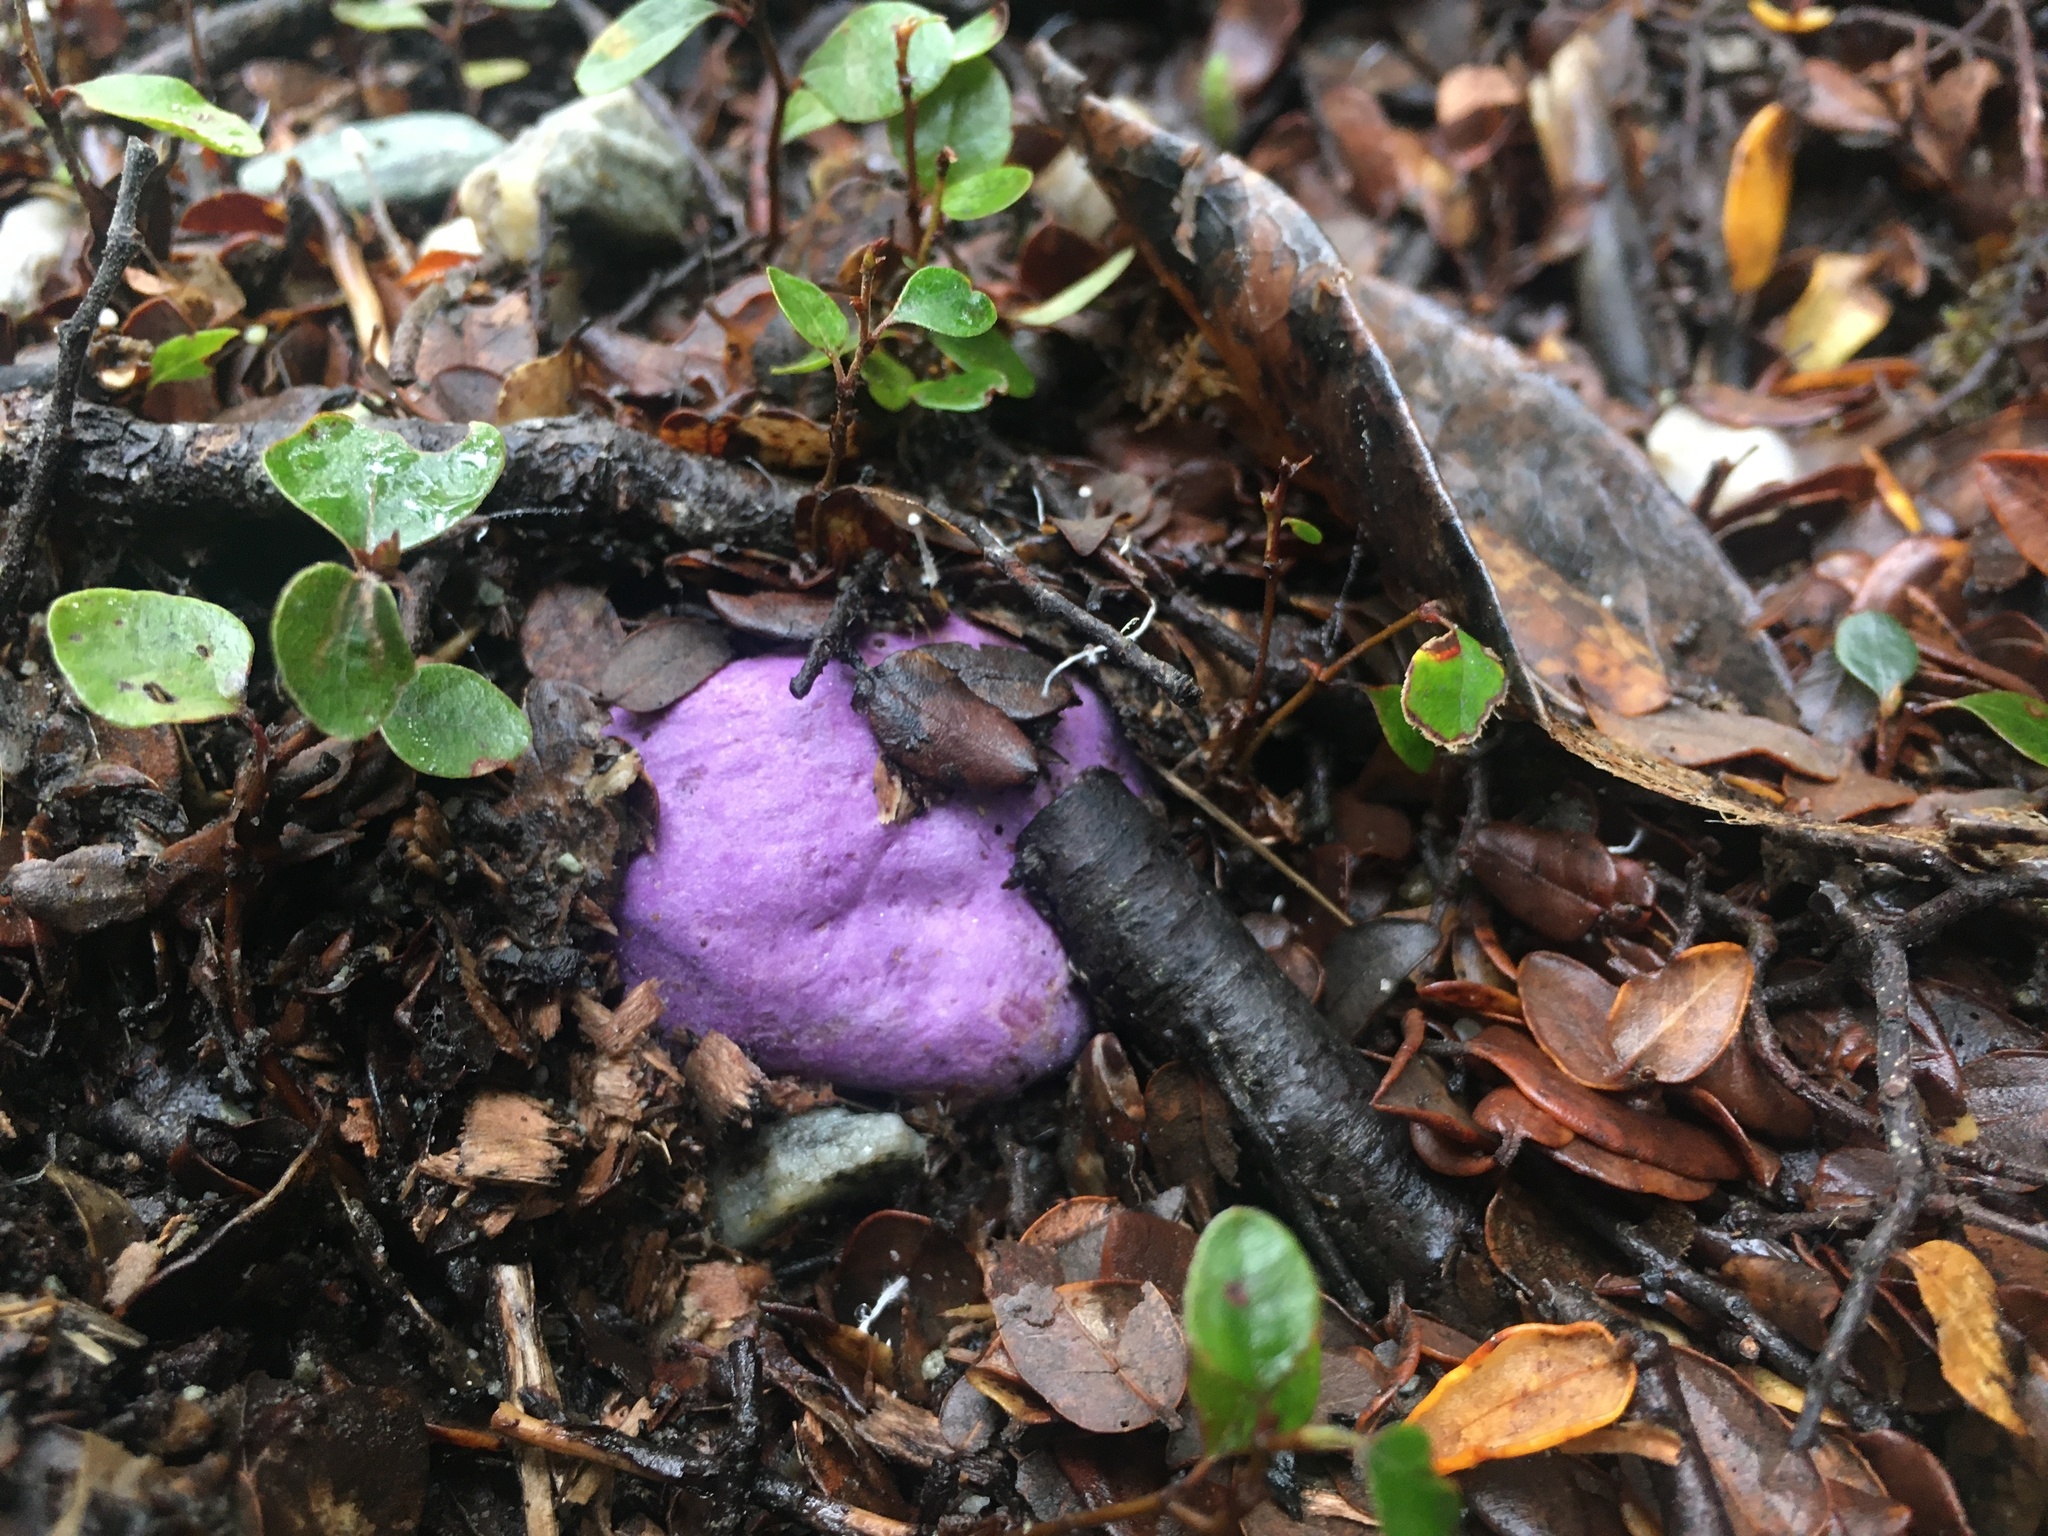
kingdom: Fungi
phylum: Basidiomycota
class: Agaricomycetes
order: Hysterangiales
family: Gallaceaceae
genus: Gallacea
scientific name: Gallacea scleroderma
